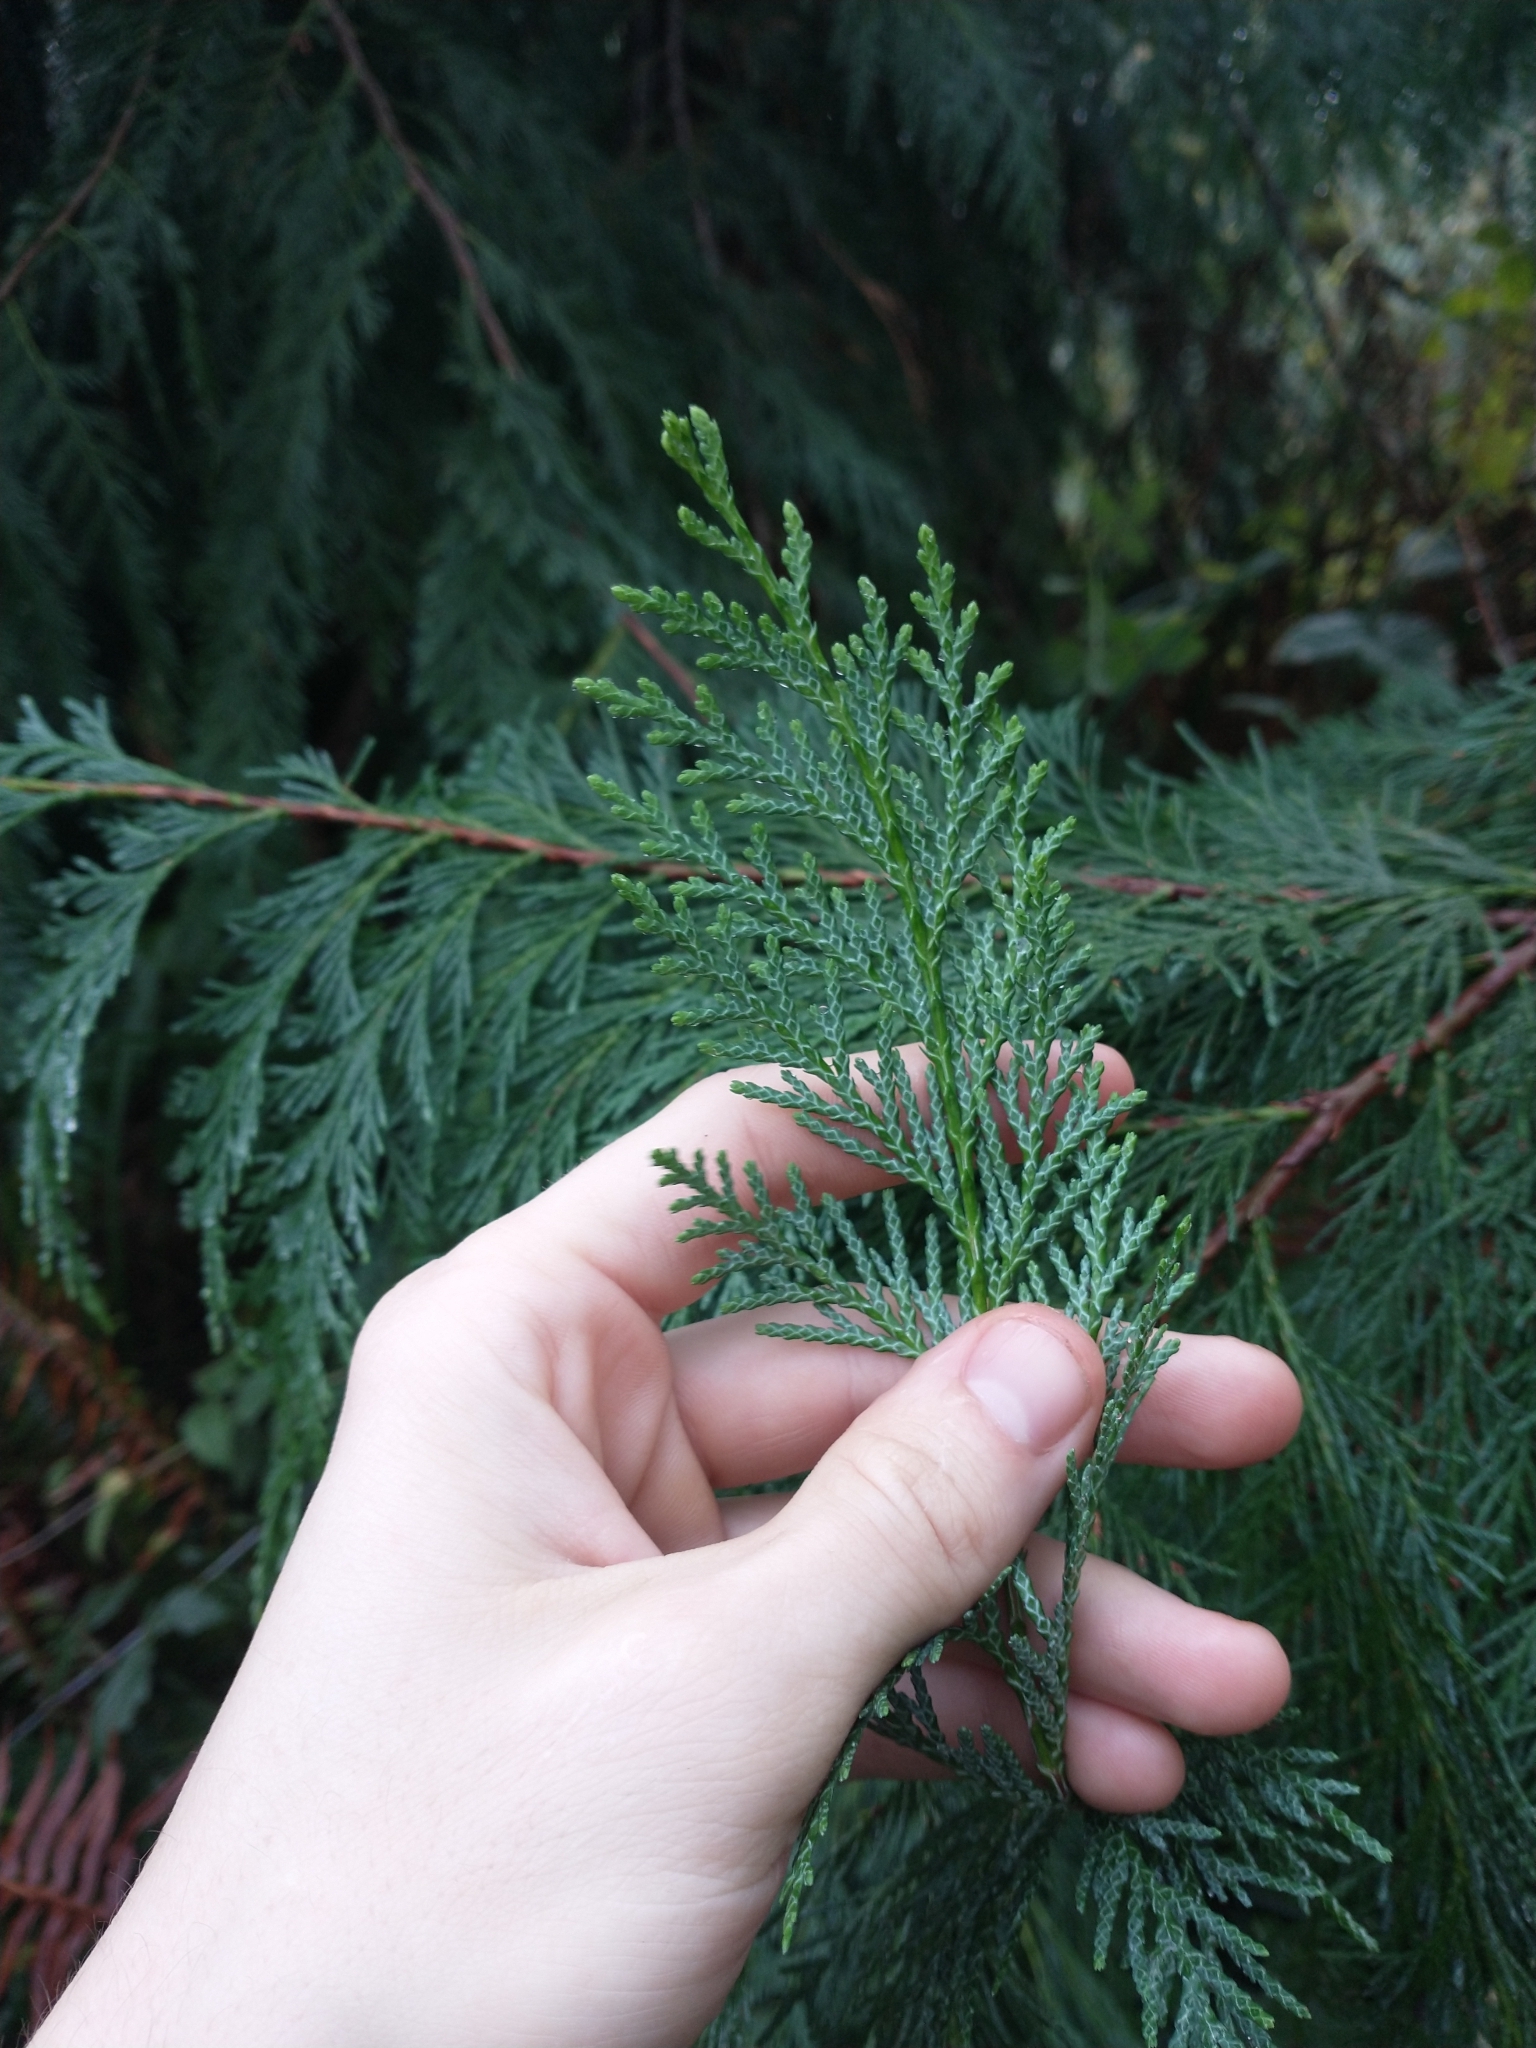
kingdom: Plantae
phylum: Tracheophyta
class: Pinopsida
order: Pinales
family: Cupressaceae
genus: Chamaecyparis
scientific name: Chamaecyparis lawsoniana
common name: Lawson's cypress
